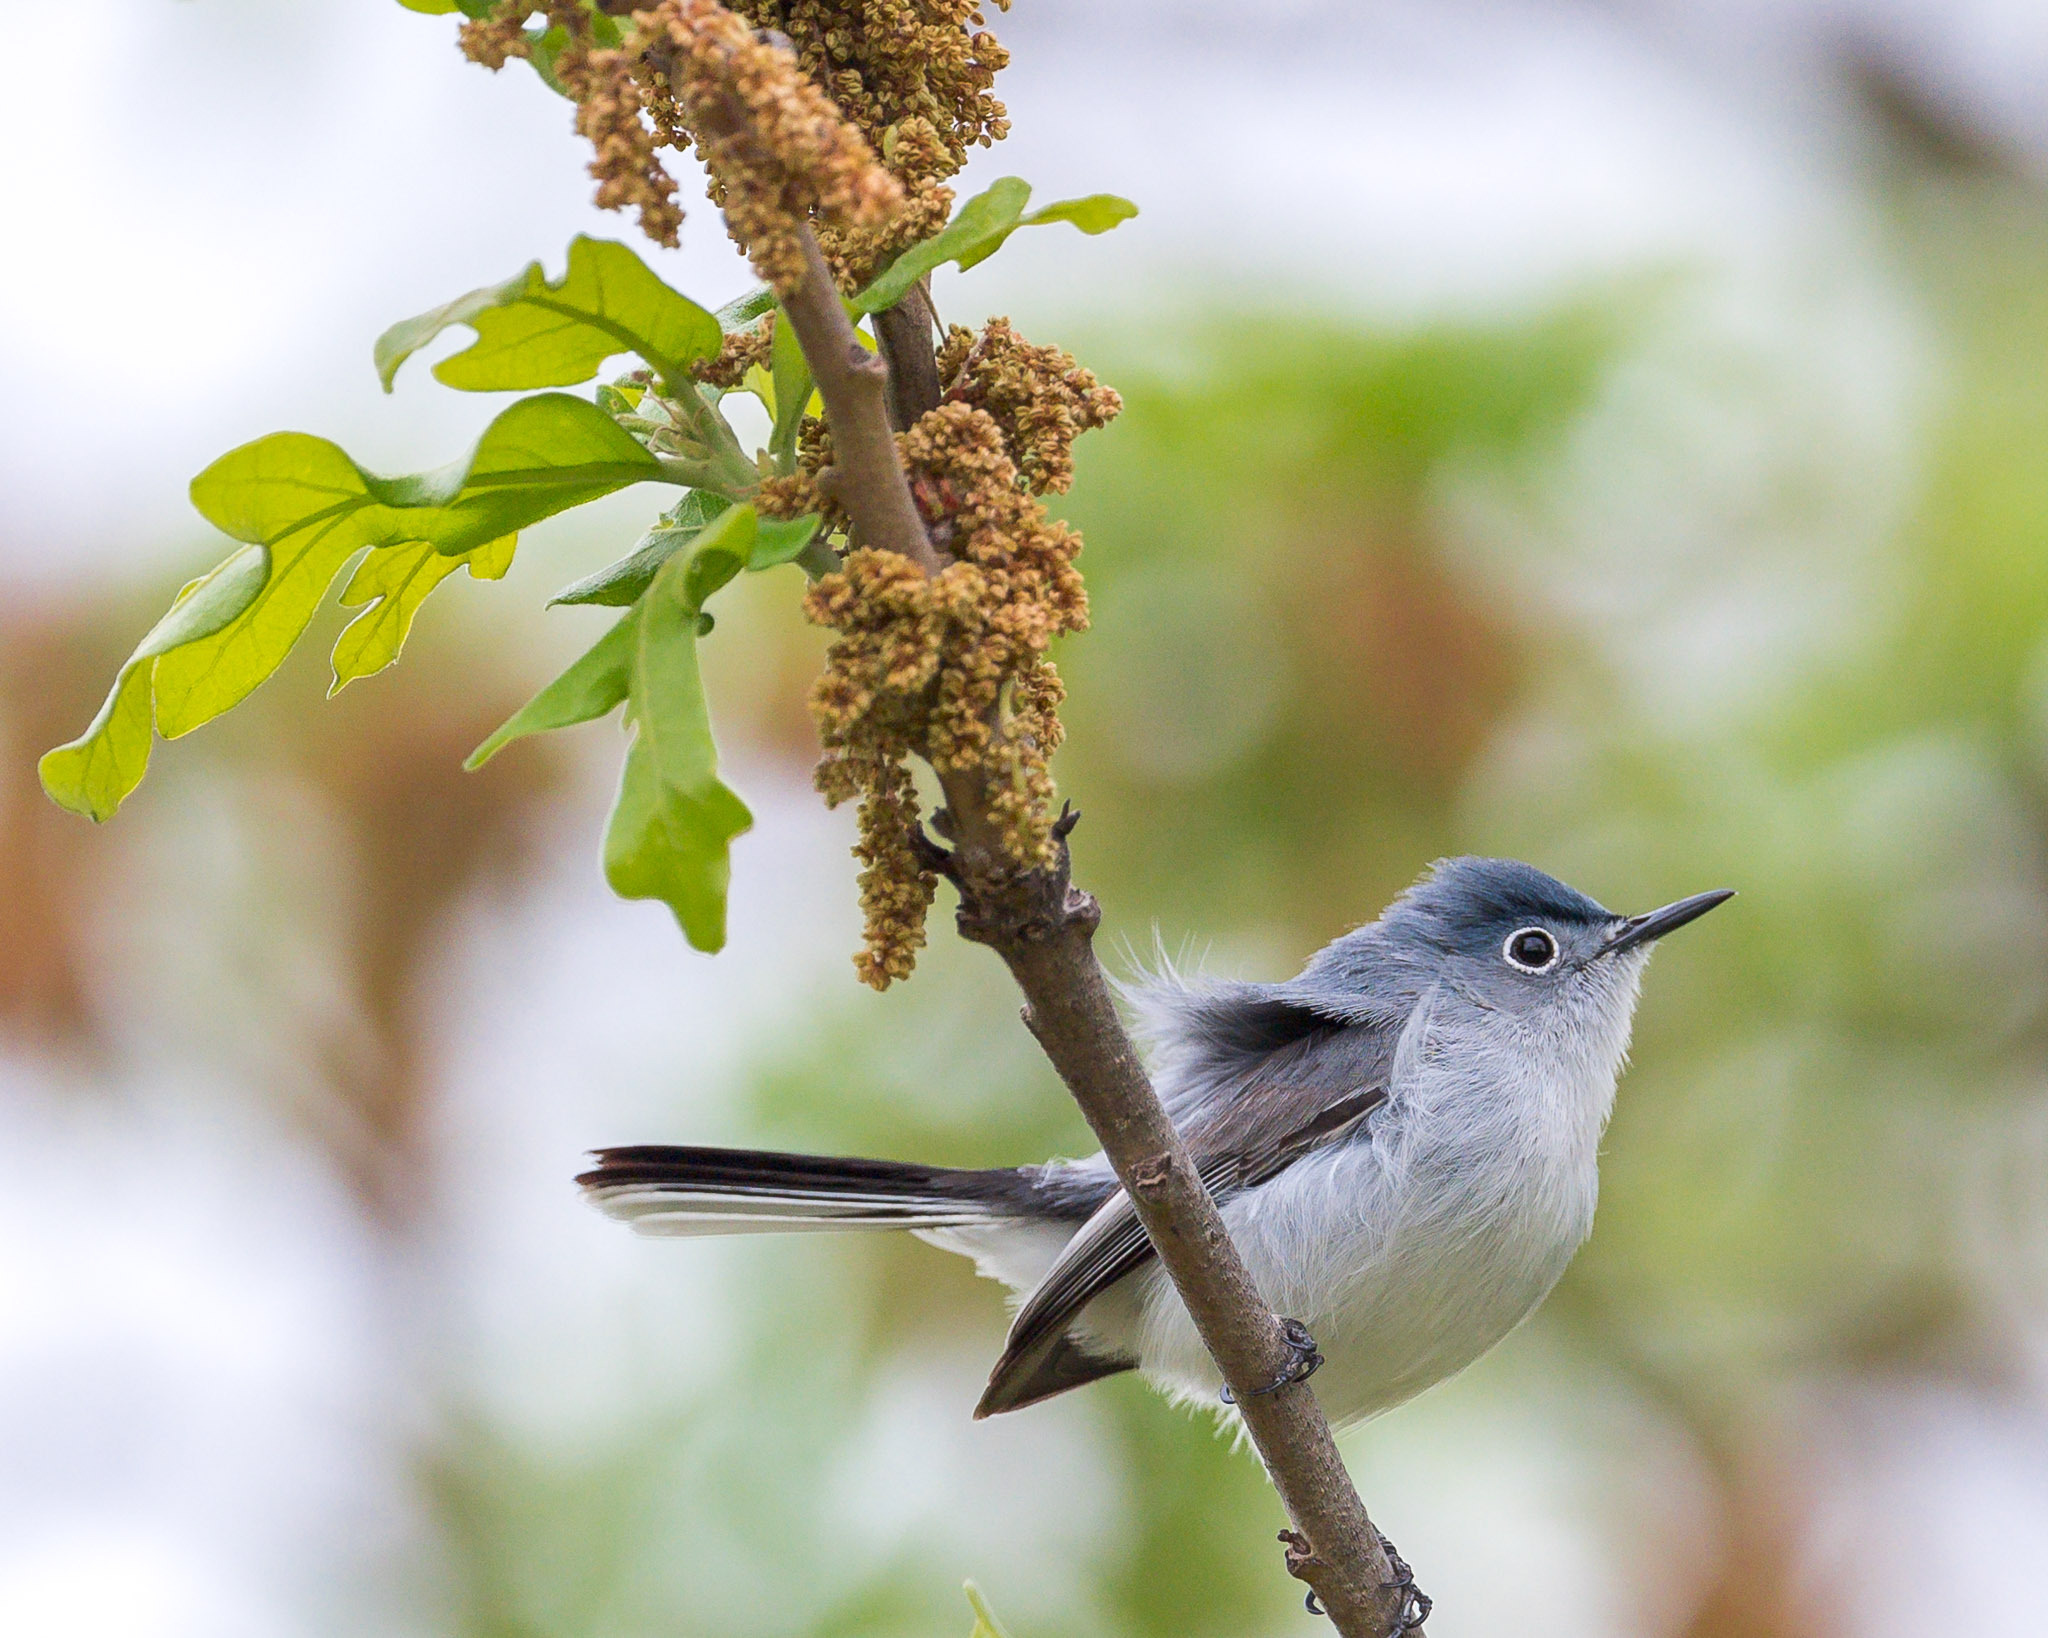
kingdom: Animalia
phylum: Chordata
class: Aves
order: Passeriformes
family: Polioptilidae
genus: Polioptila
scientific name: Polioptila caerulea
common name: Blue-gray gnatcatcher
